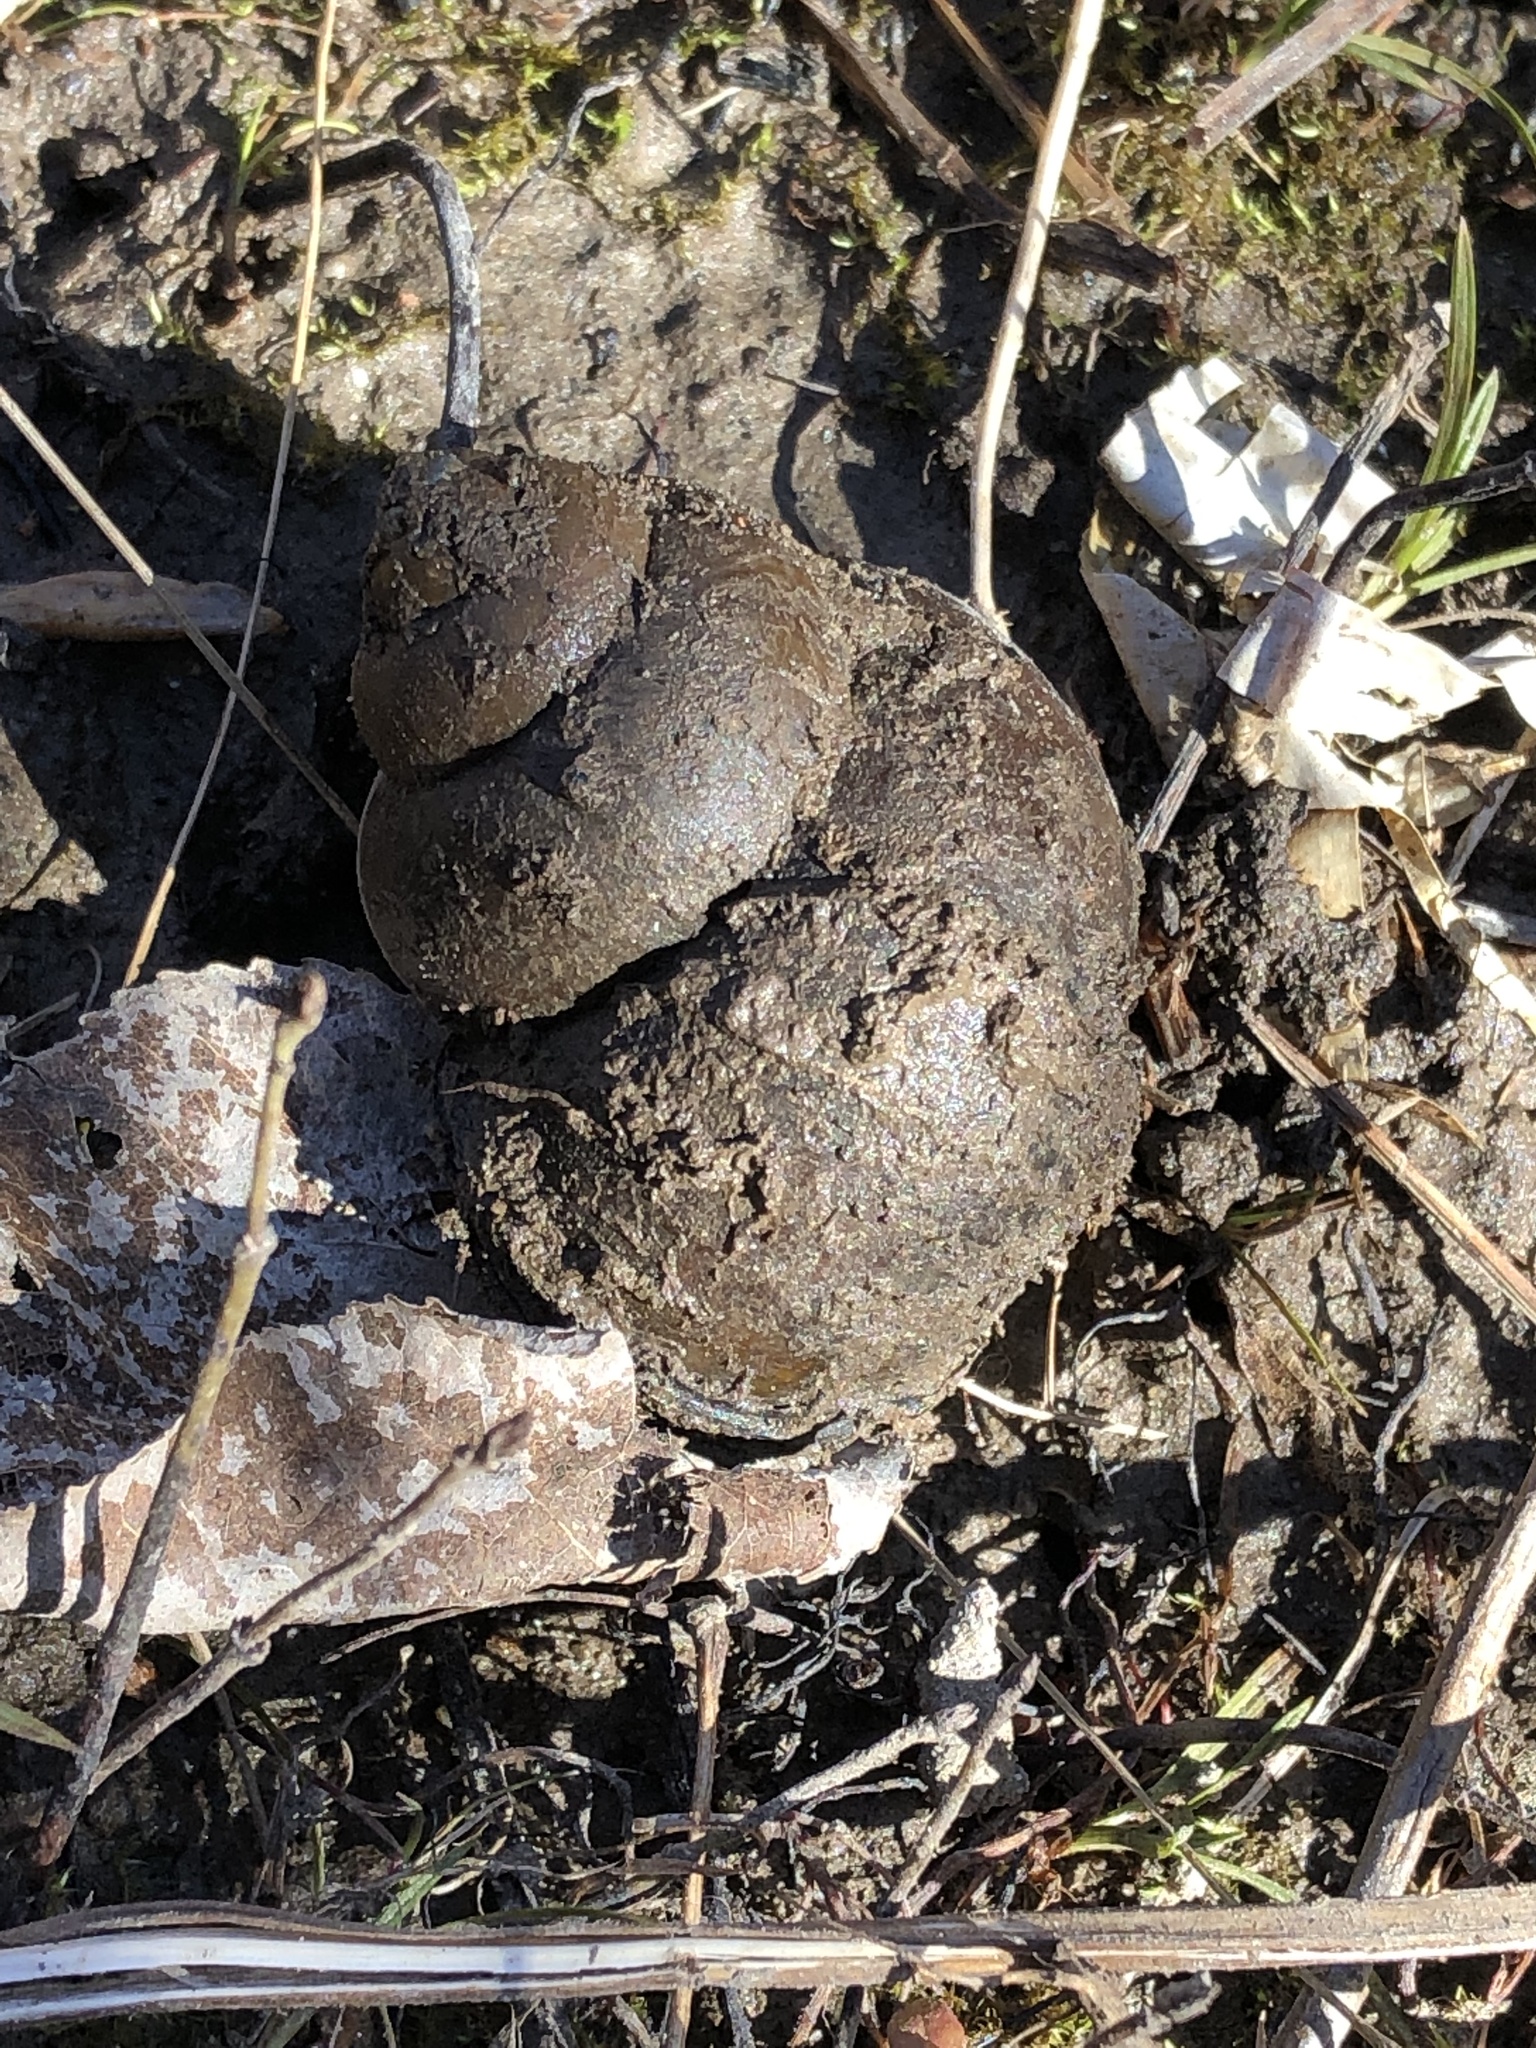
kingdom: Animalia
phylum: Mollusca
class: Gastropoda
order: Architaenioglossa
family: Viviparidae
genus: Cipangopaludina
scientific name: Cipangopaludina chinensis
